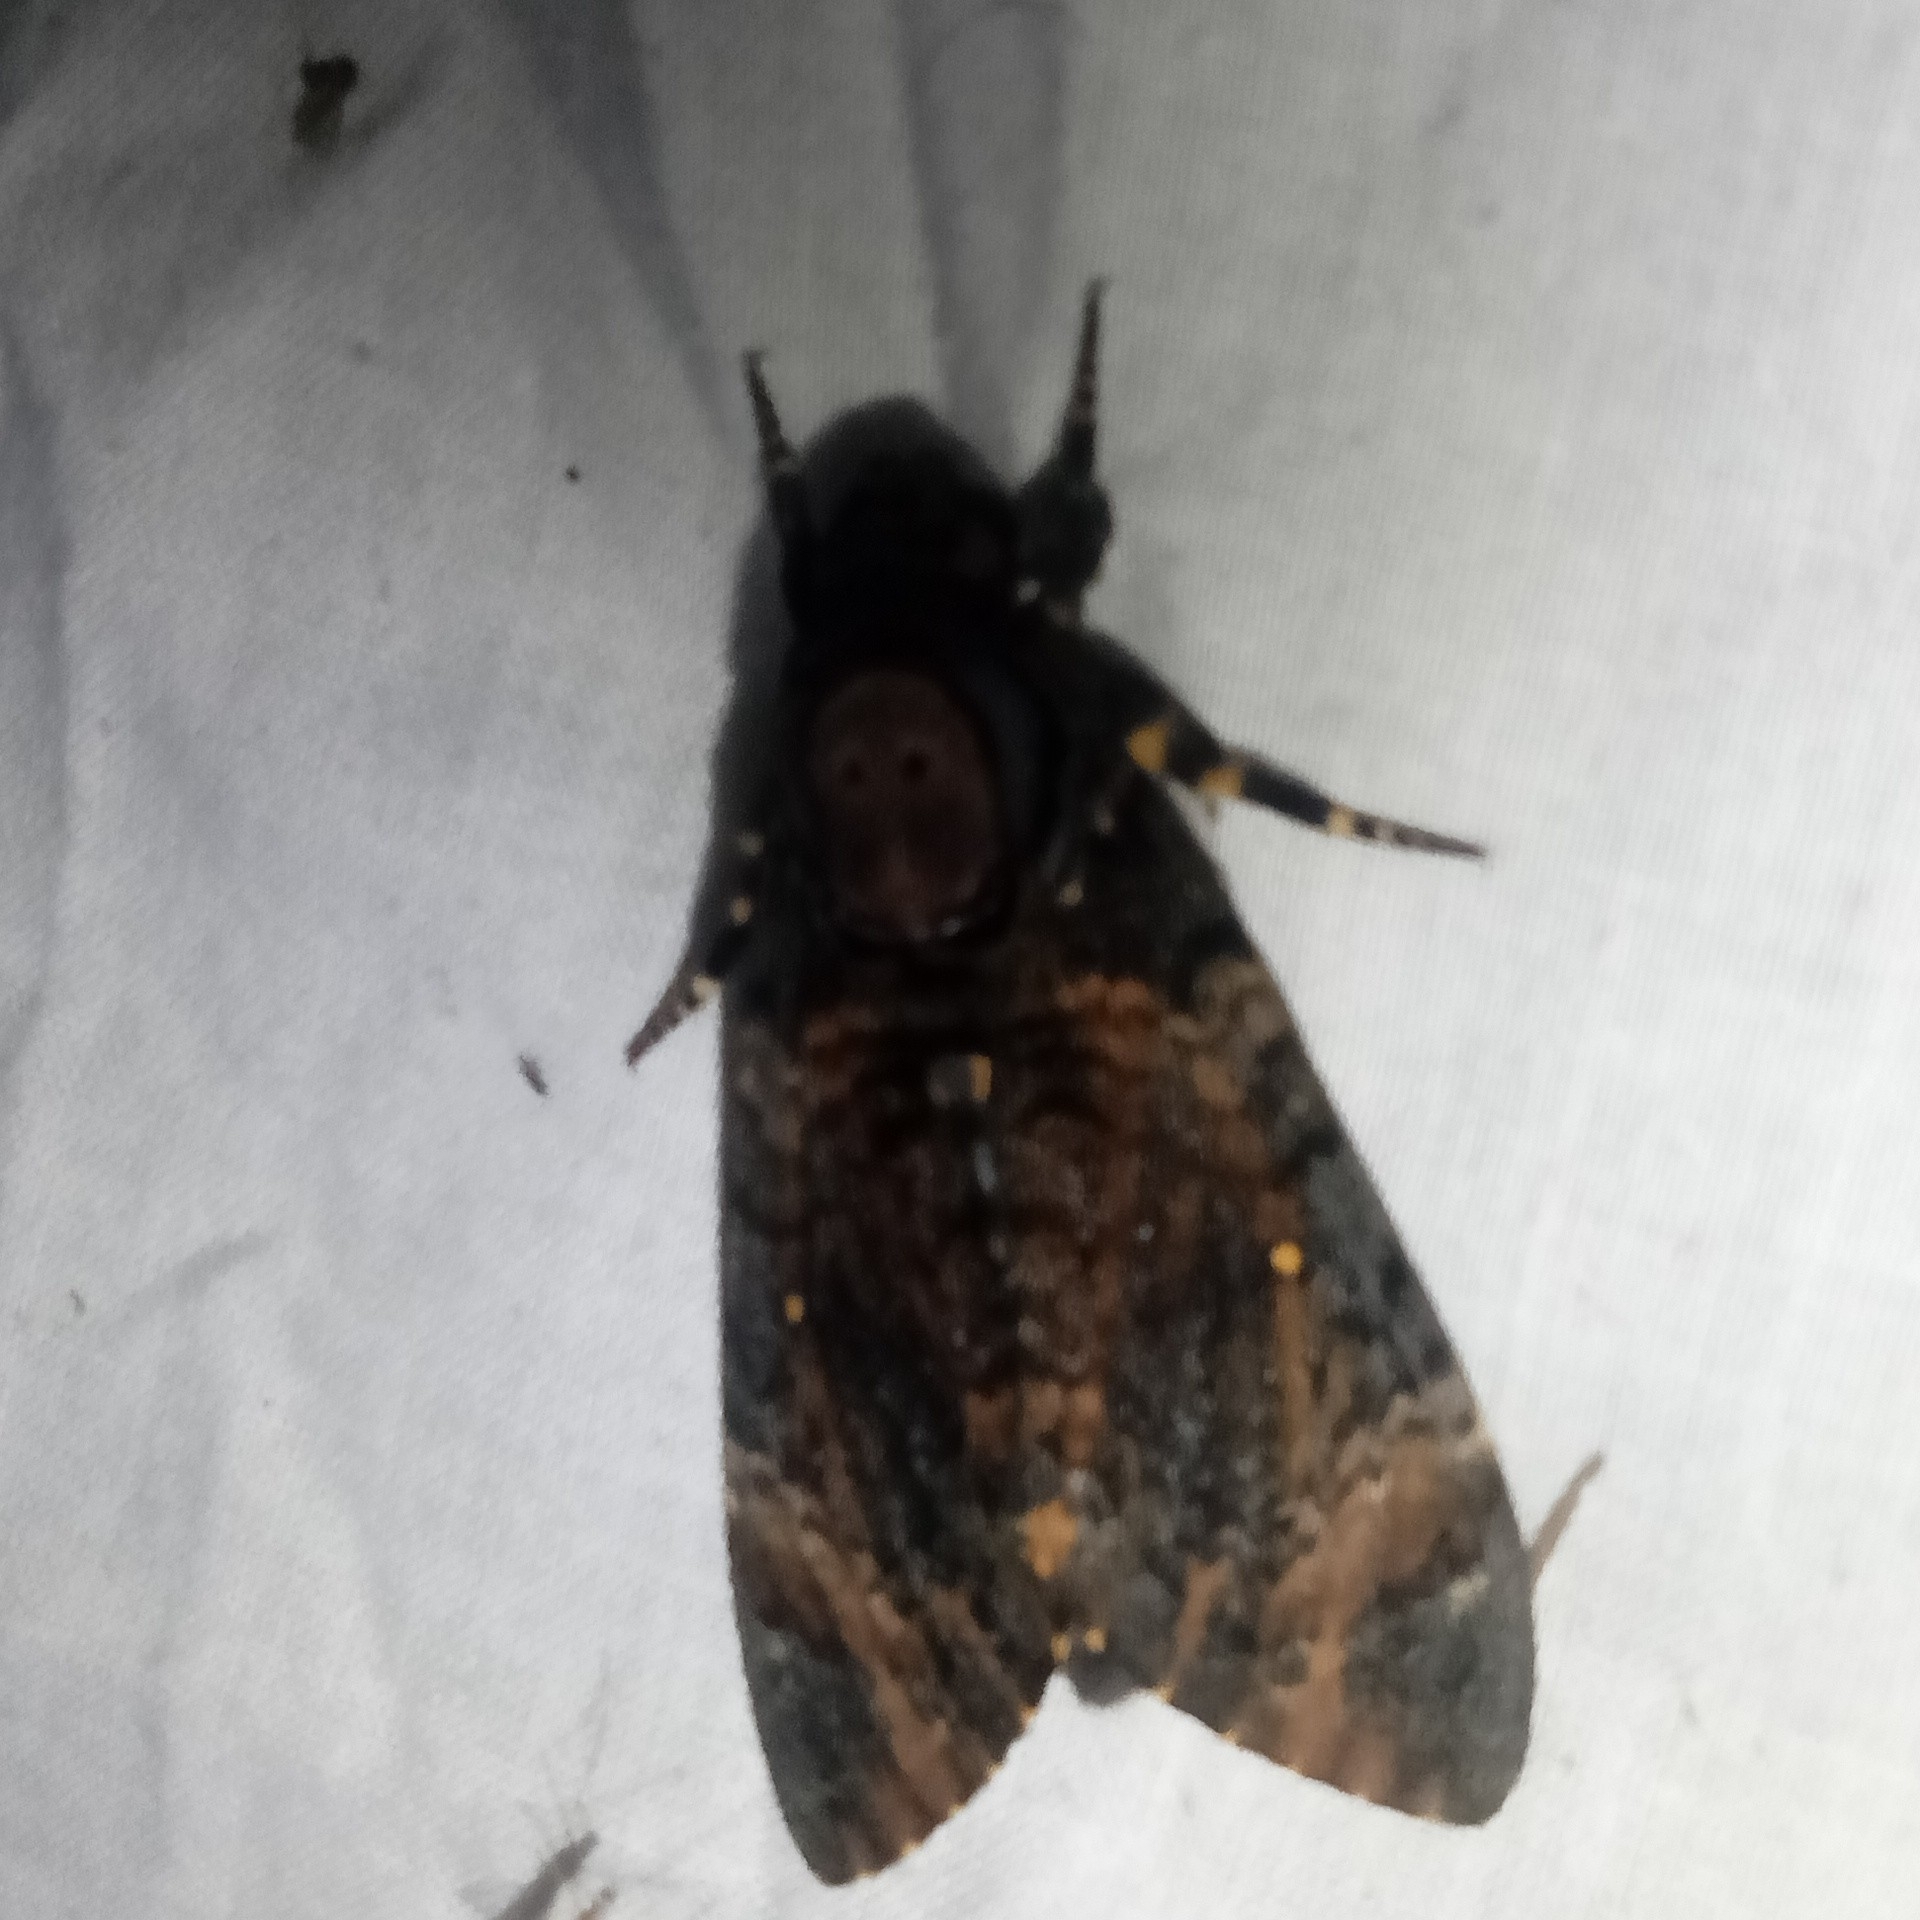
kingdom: Animalia
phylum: Arthropoda
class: Insecta
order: Lepidoptera
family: Sphingidae
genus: Acherontia
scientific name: Acherontia styx
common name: Death's-head hawk moth
